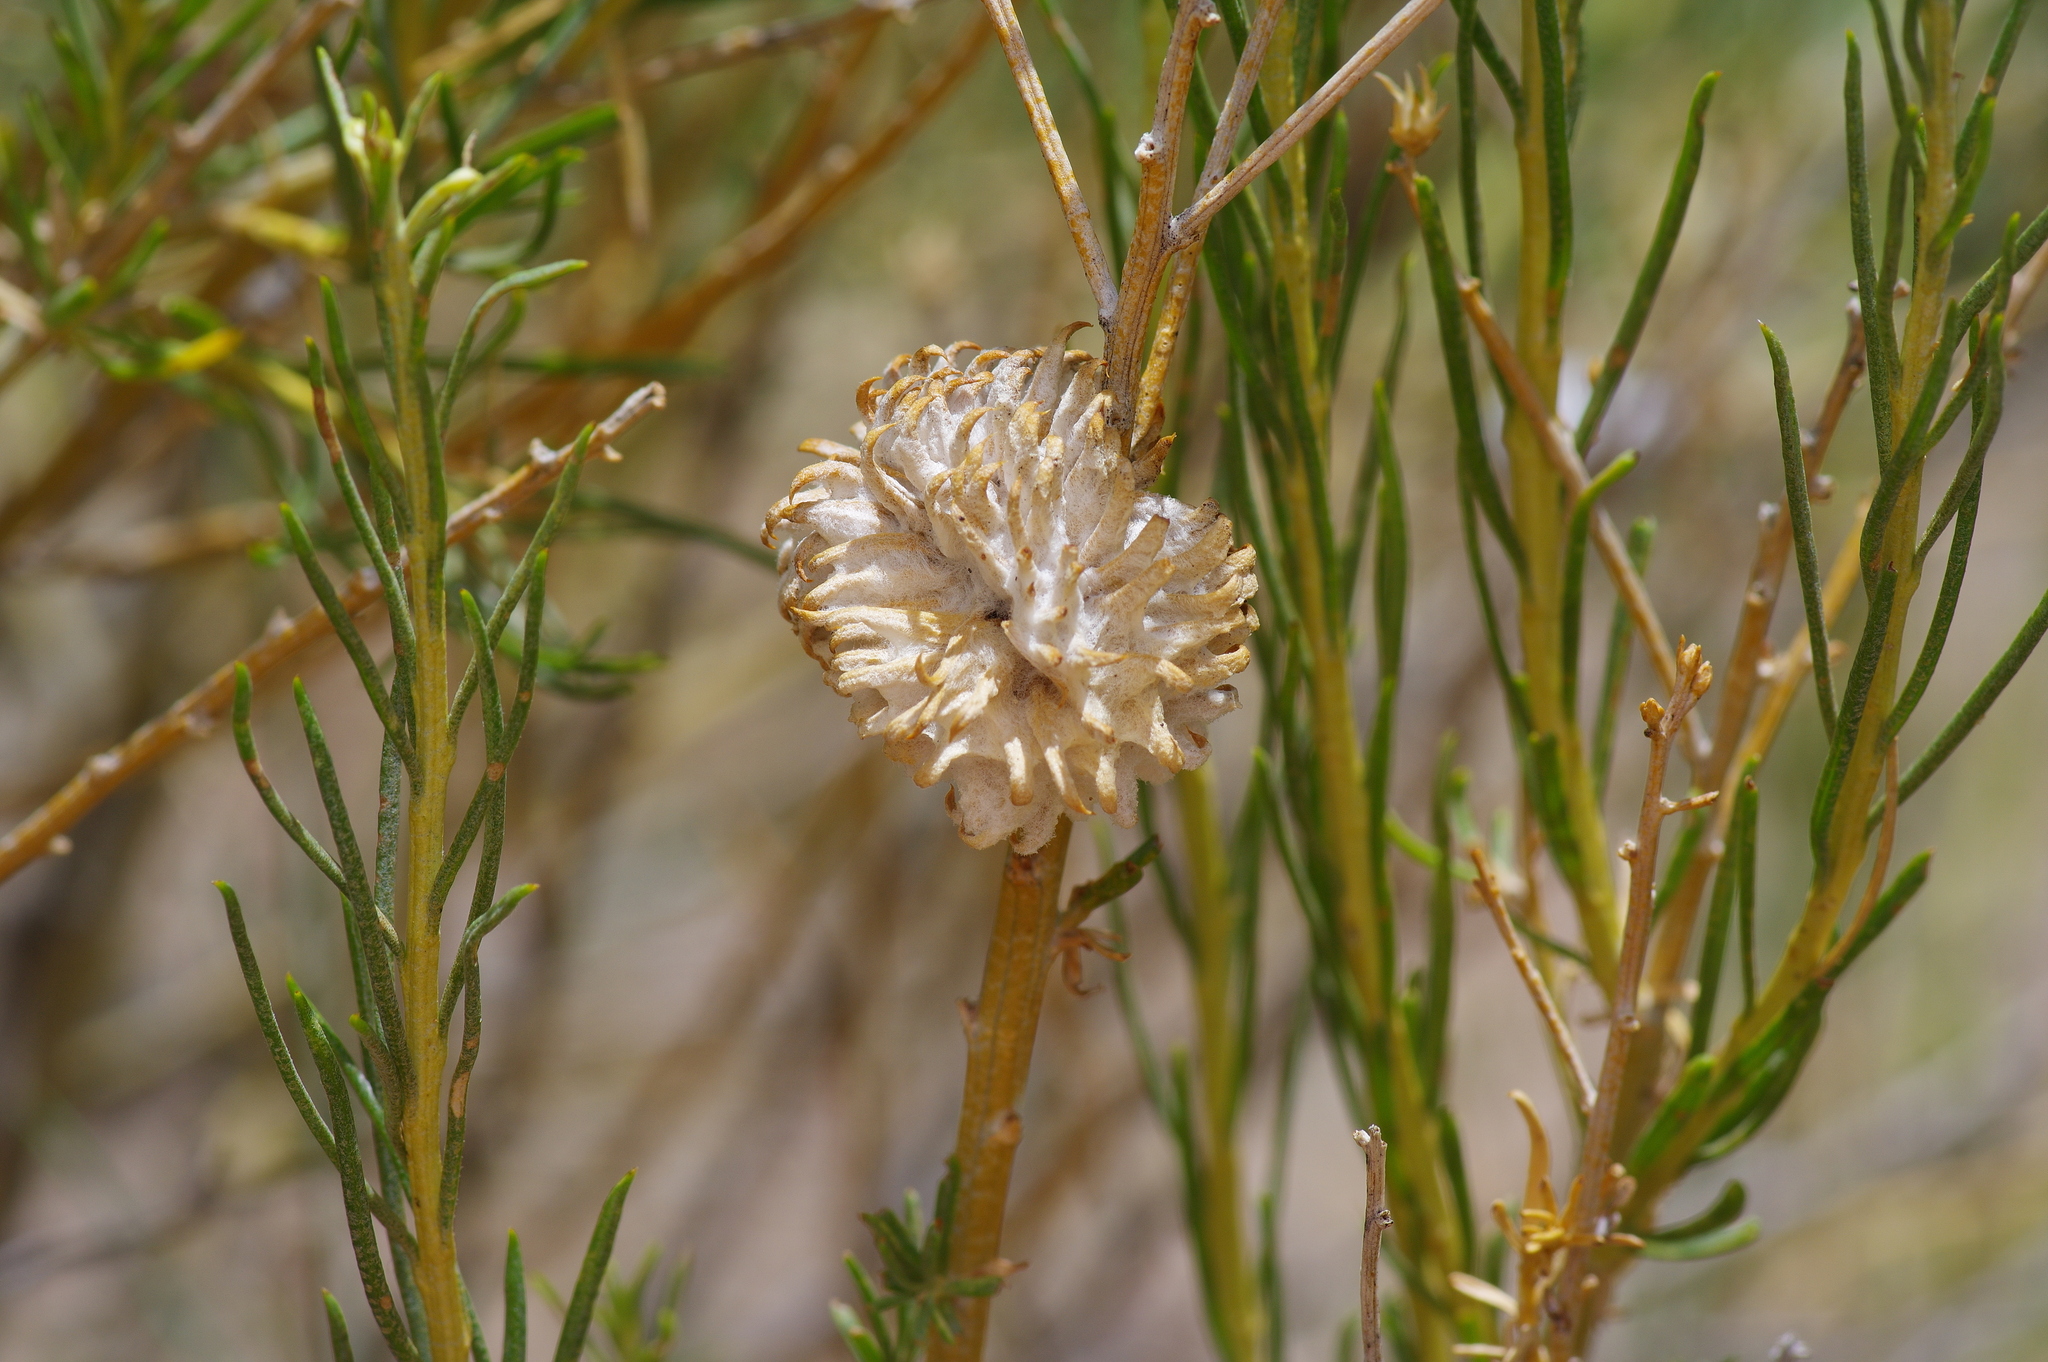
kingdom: Animalia
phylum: Arthropoda
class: Insecta
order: Diptera
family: Cecidomyiidae
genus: Rhopalomyia
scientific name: Rhopalomyia utahensis
